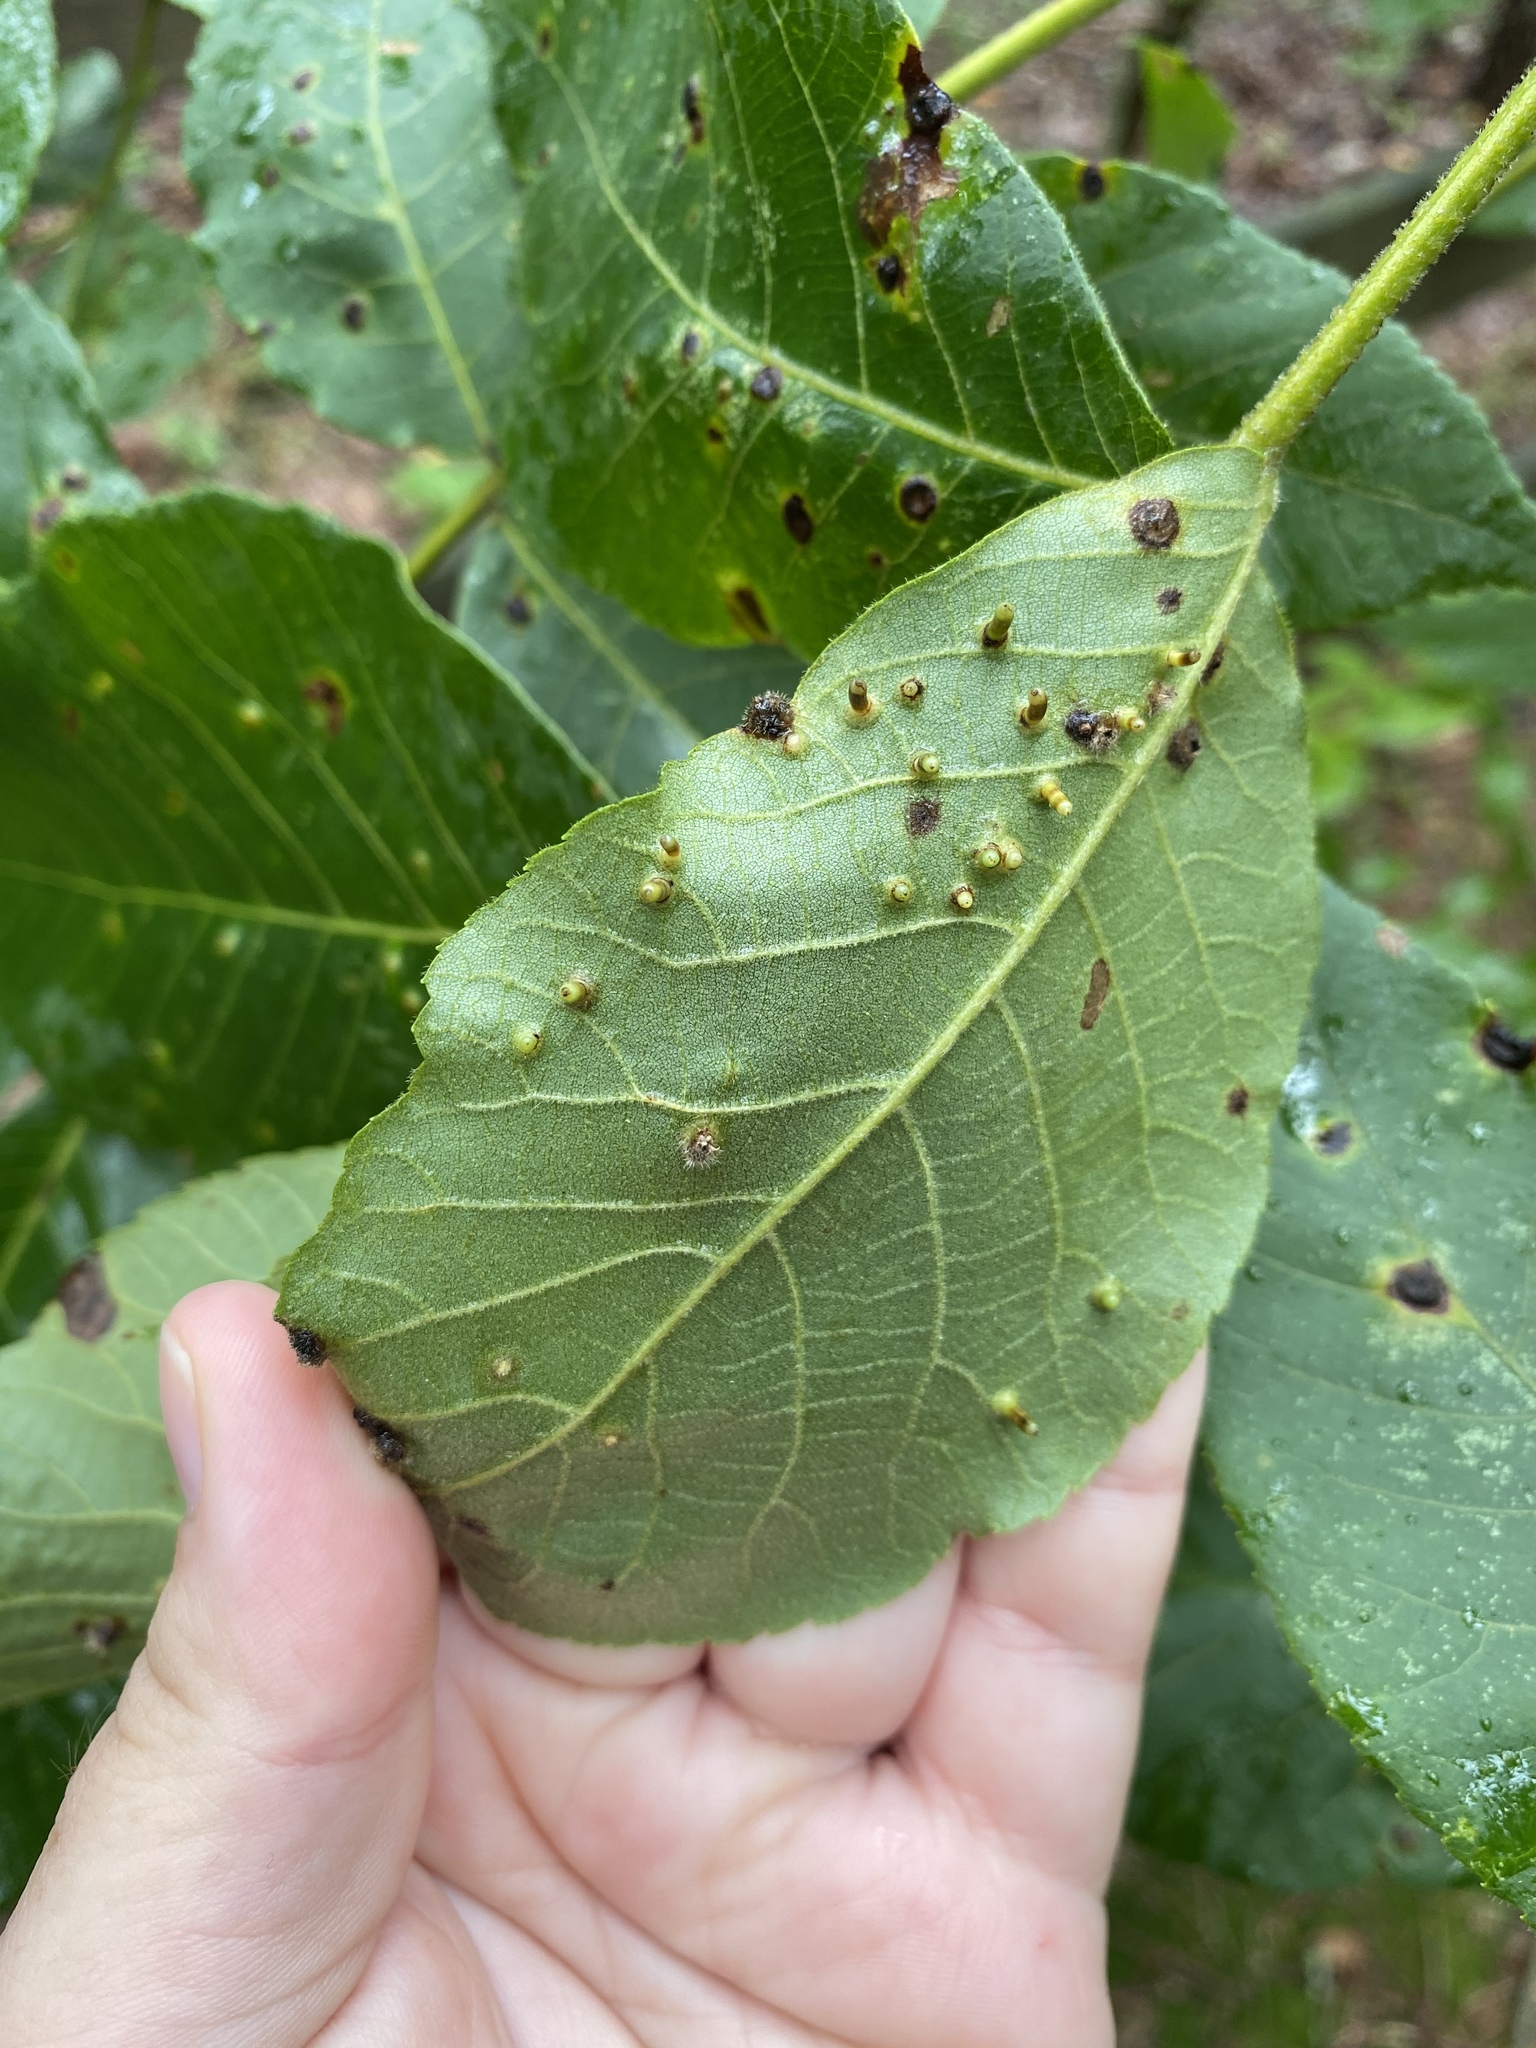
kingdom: Animalia
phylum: Arthropoda
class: Insecta
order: Diptera
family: Cecidomyiidae
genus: Caryomyia
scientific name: Caryomyia tubicola
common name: Hickory bullet gall midge
